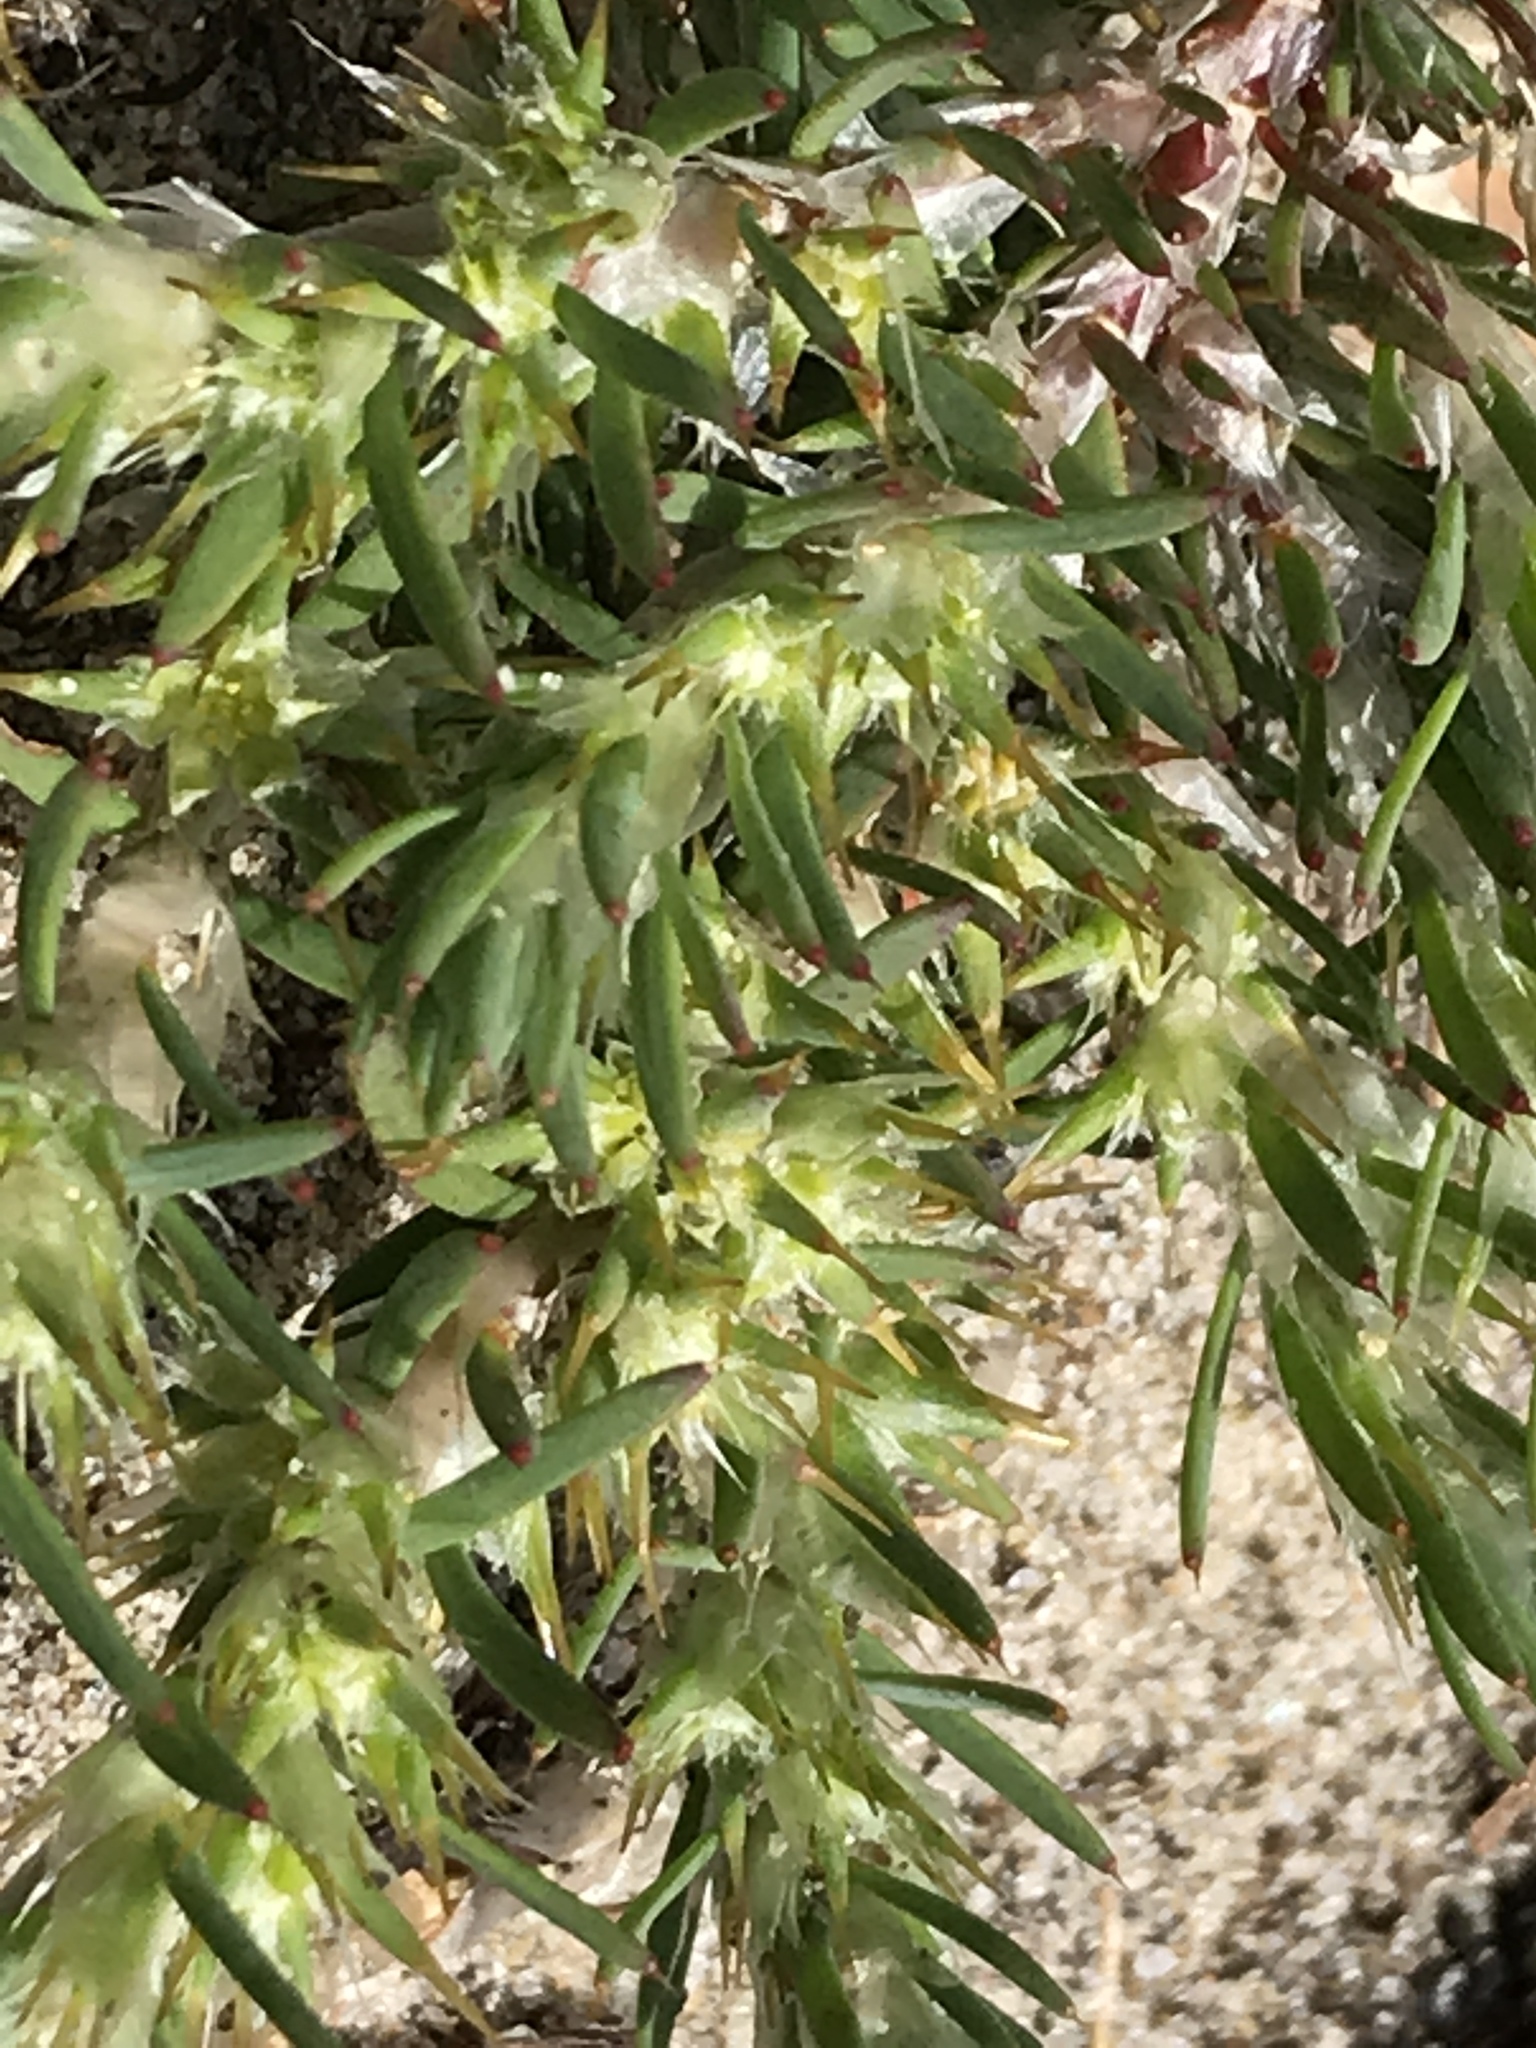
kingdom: Plantae
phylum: Tracheophyta
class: Magnoliopsida
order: Caryophyllales
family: Caryophyllaceae
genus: Cardionema
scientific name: Cardionema ramosissima
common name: Sandcarpet
